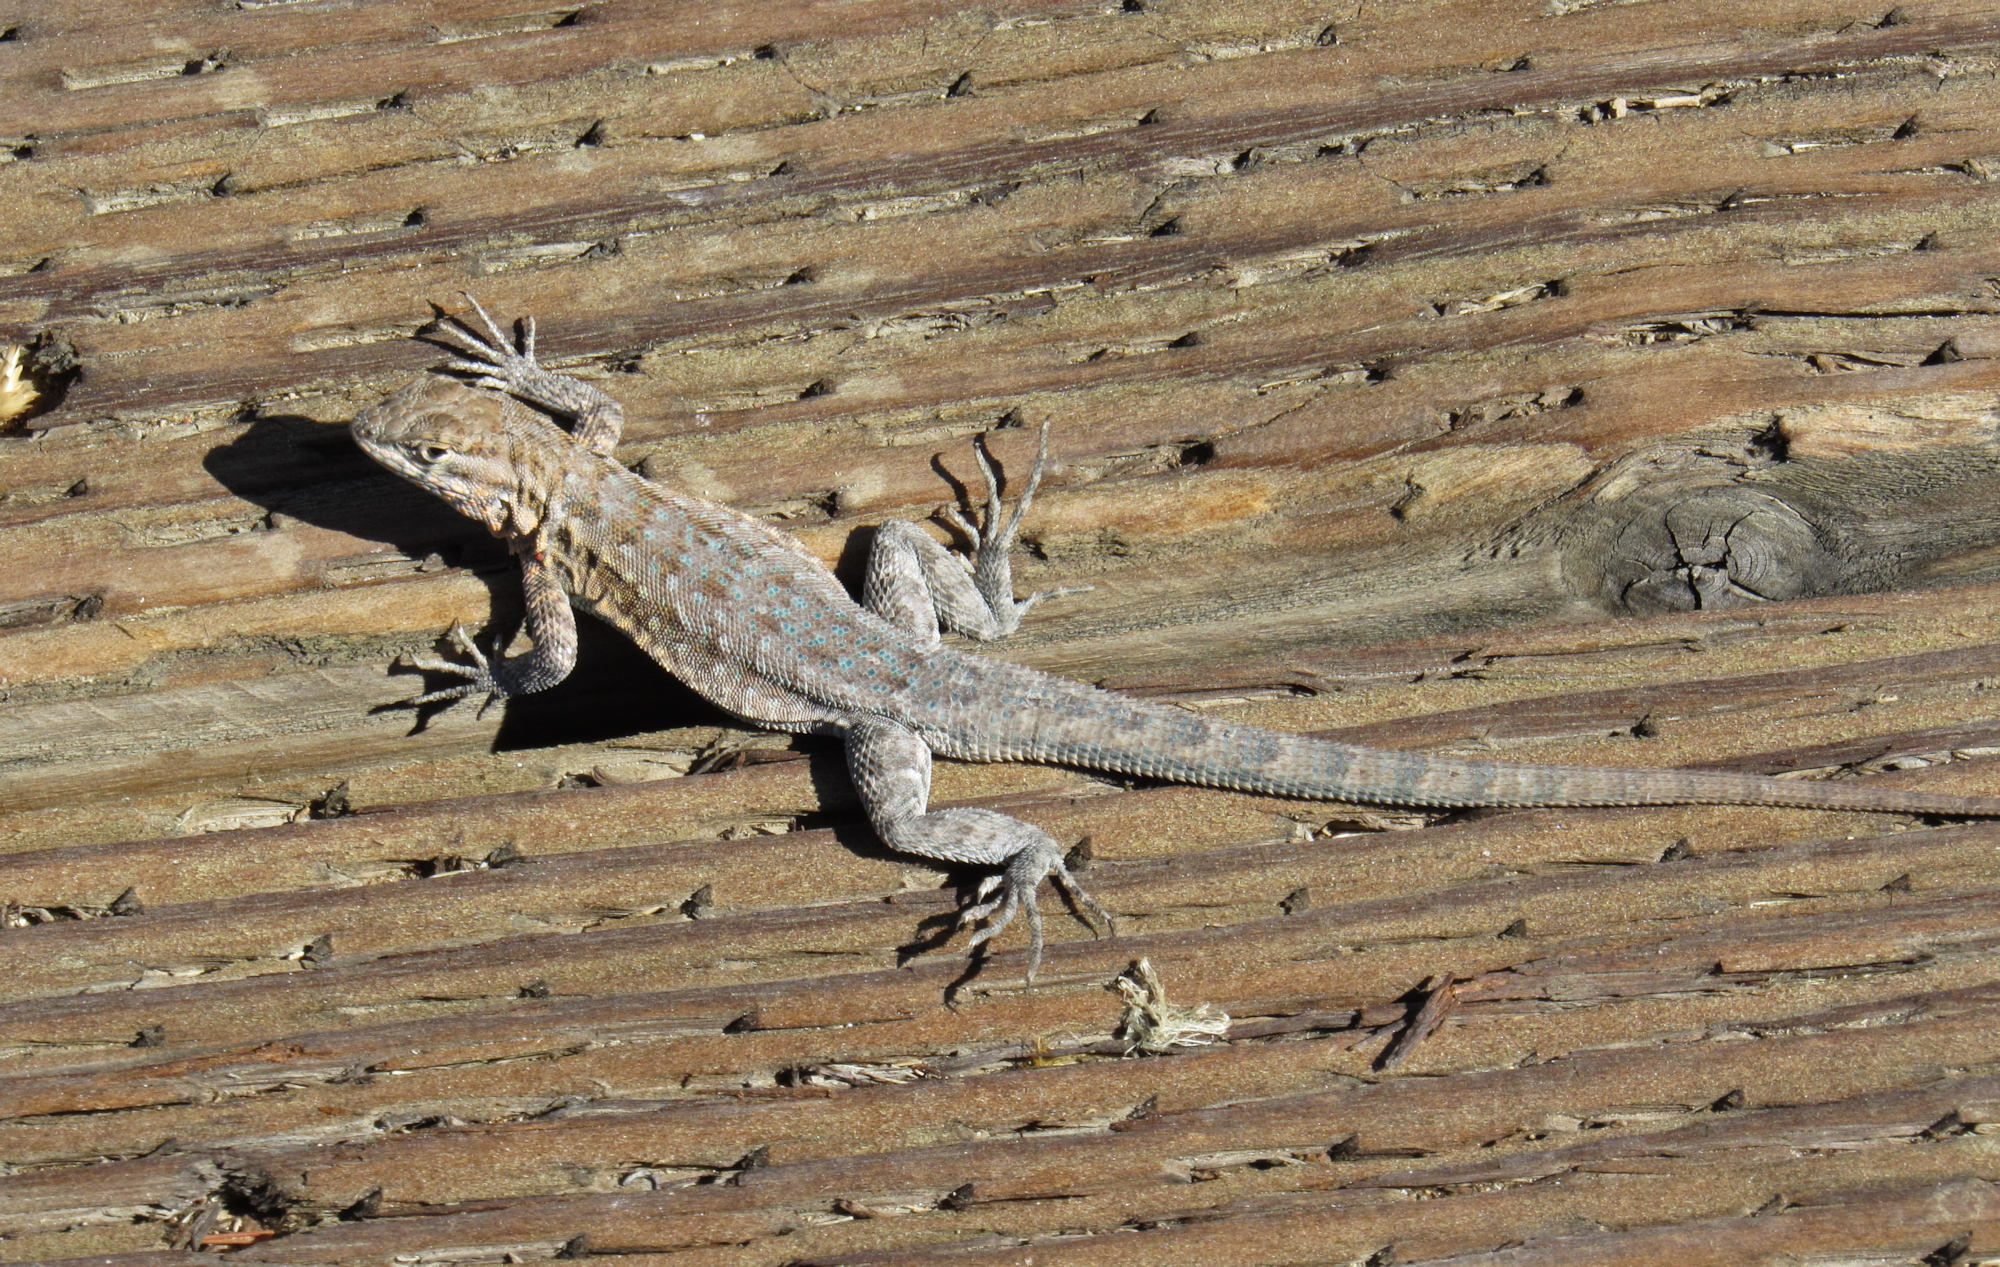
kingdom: Animalia
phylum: Chordata
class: Squamata
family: Phrynosomatidae
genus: Uta
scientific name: Uta stansburiana
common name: Side-blotched lizard
